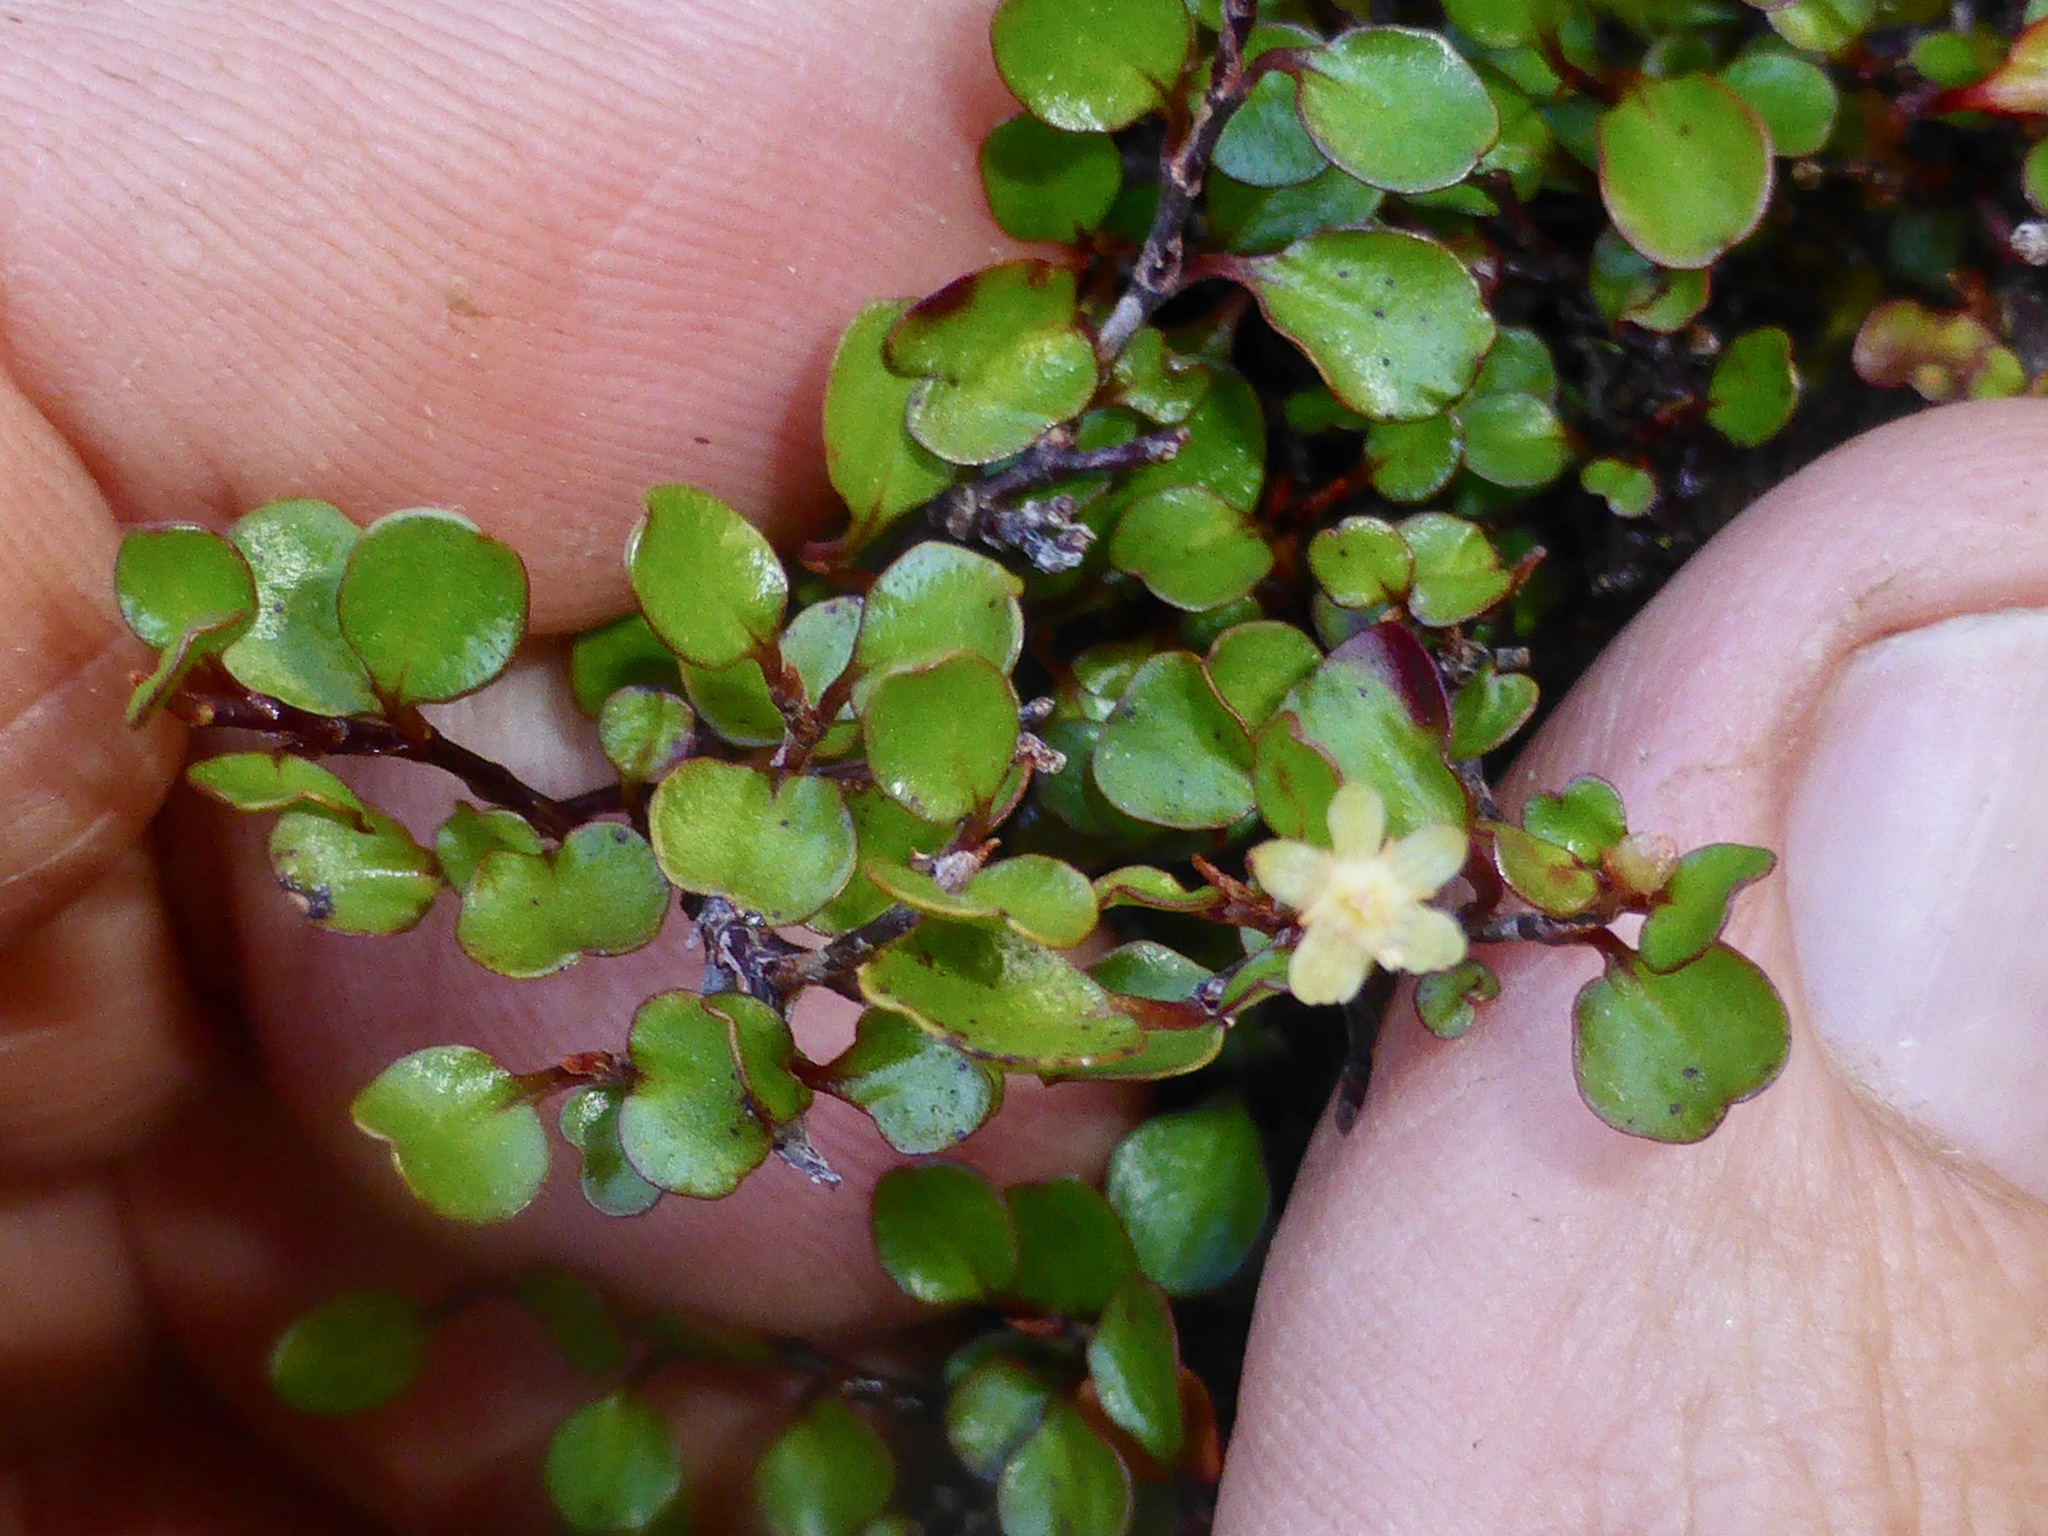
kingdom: Plantae
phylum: Tracheophyta
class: Magnoliopsida
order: Caryophyllales
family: Polygonaceae
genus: Muehlenbeckia
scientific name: Muehlenbeckia axillaris
